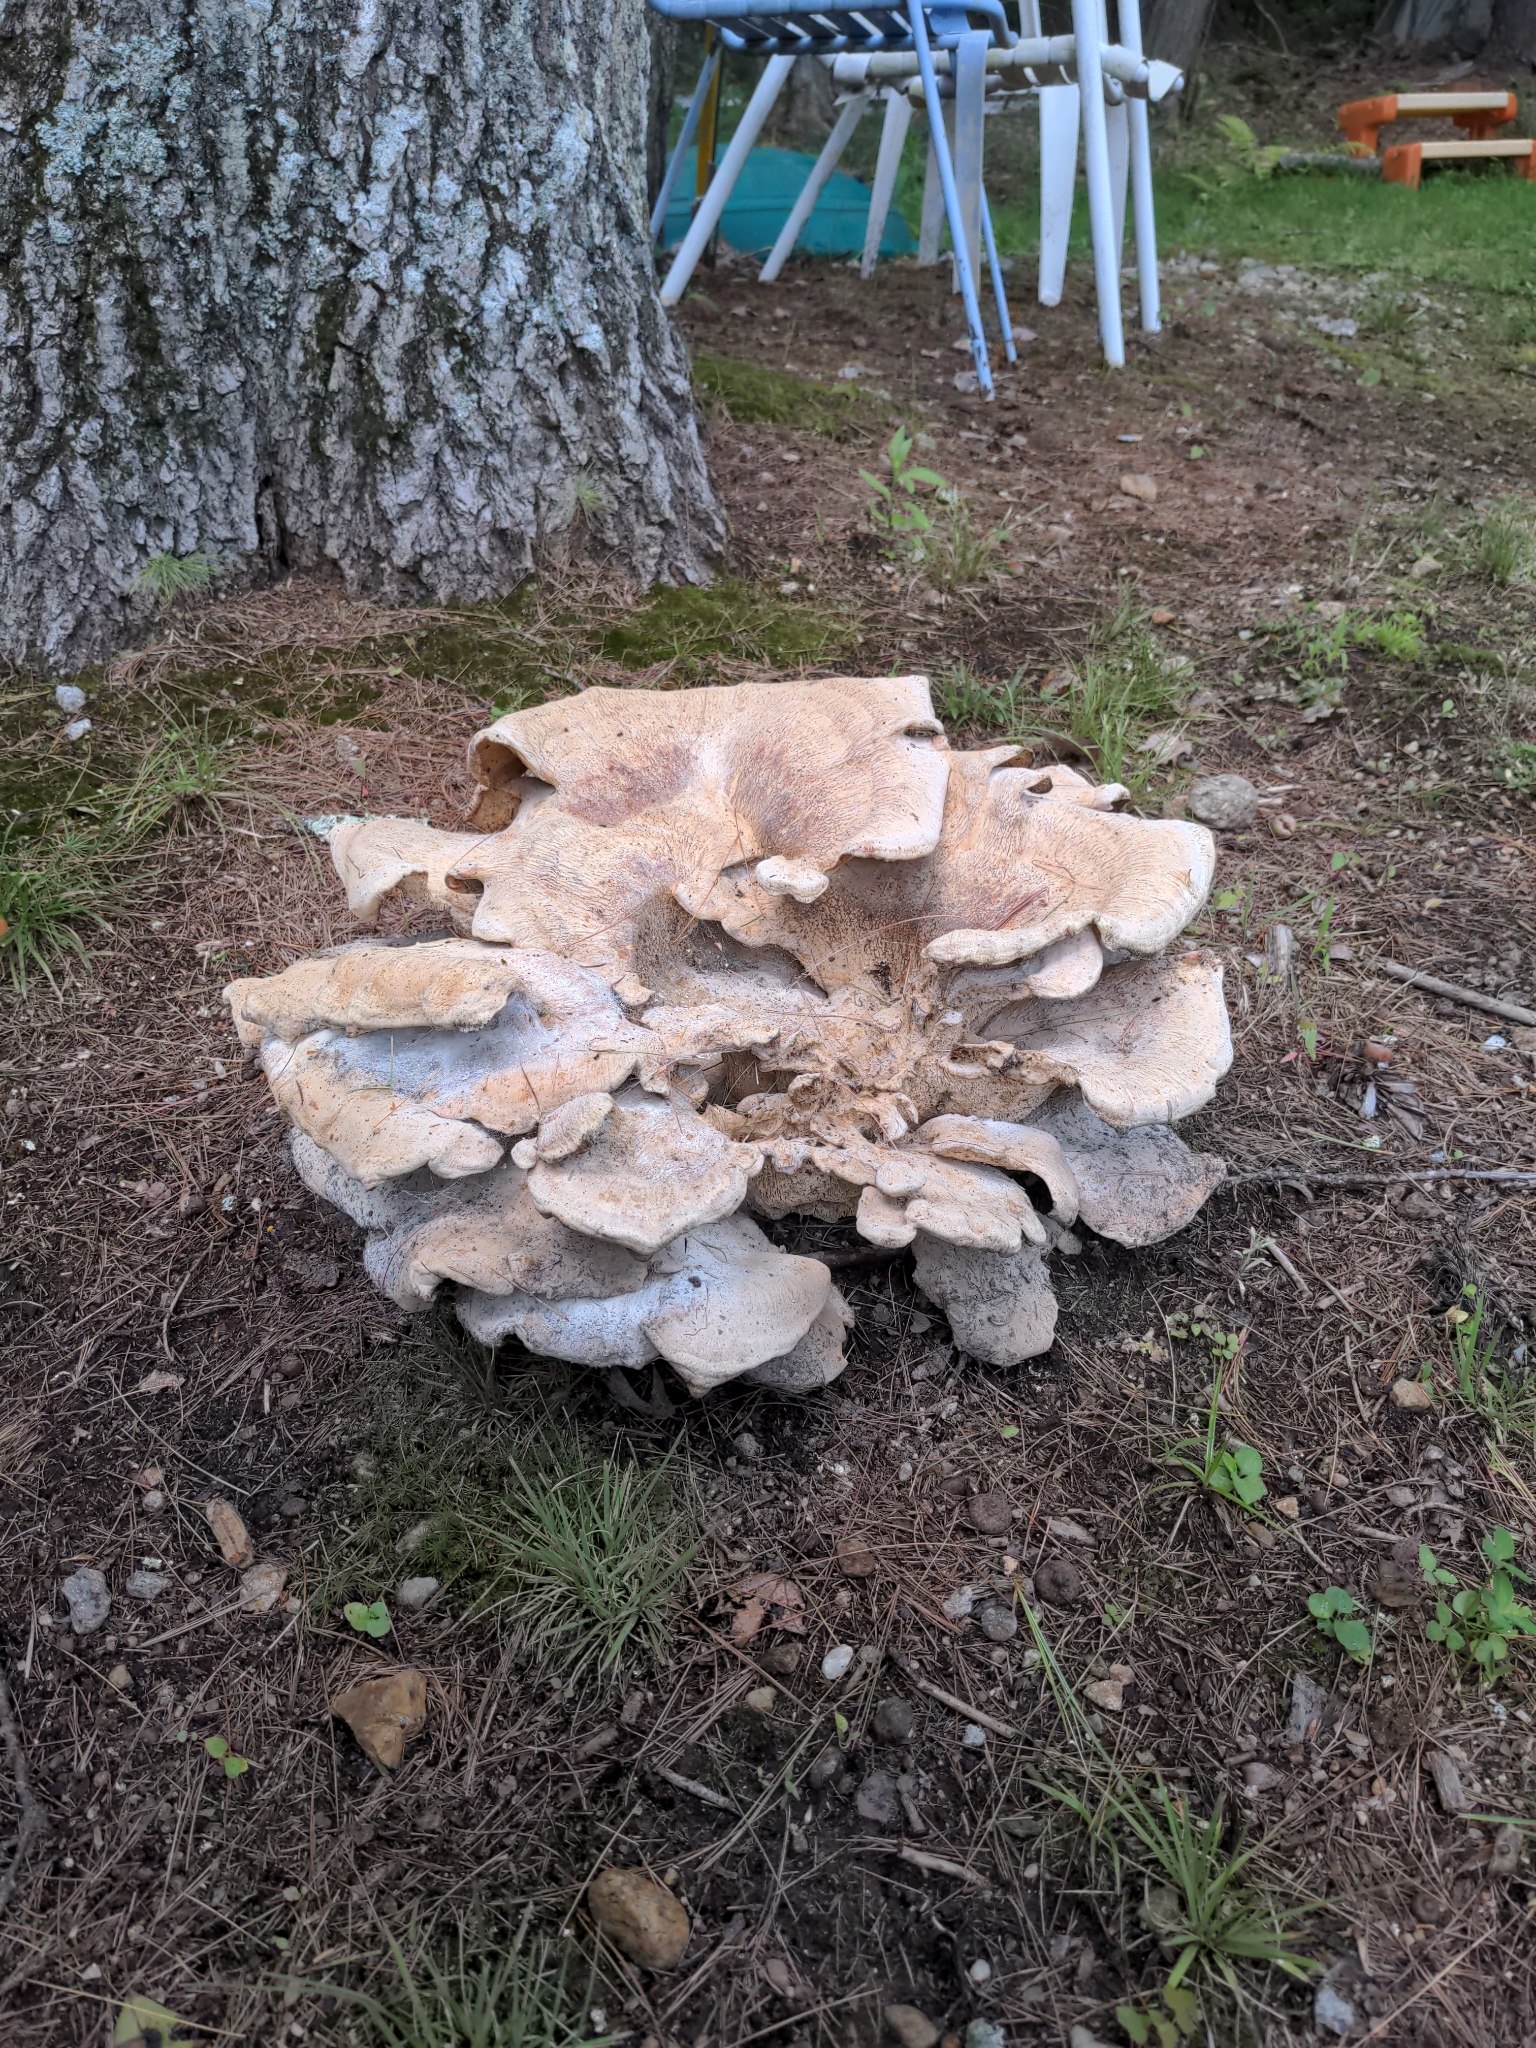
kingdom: Fungi
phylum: Basidiomycota
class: Agaricomycetes
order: Russulales
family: Bondarzewiaceae
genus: Bondarzewia
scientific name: Bondarzewia berkeleyi
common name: Berkeley's polypore
